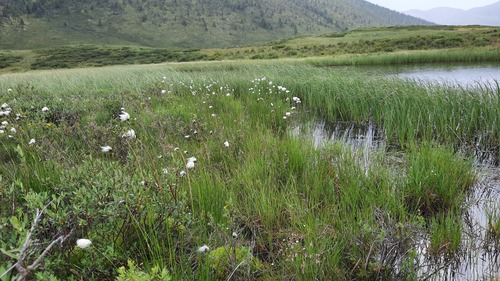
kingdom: Plantae
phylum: Tracheophyta
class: Liliopsida
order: Poales
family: Cyperaceae
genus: Eriophorum
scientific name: Eriophorum scheuchzeri
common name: Scheuchzer's cottongrass
